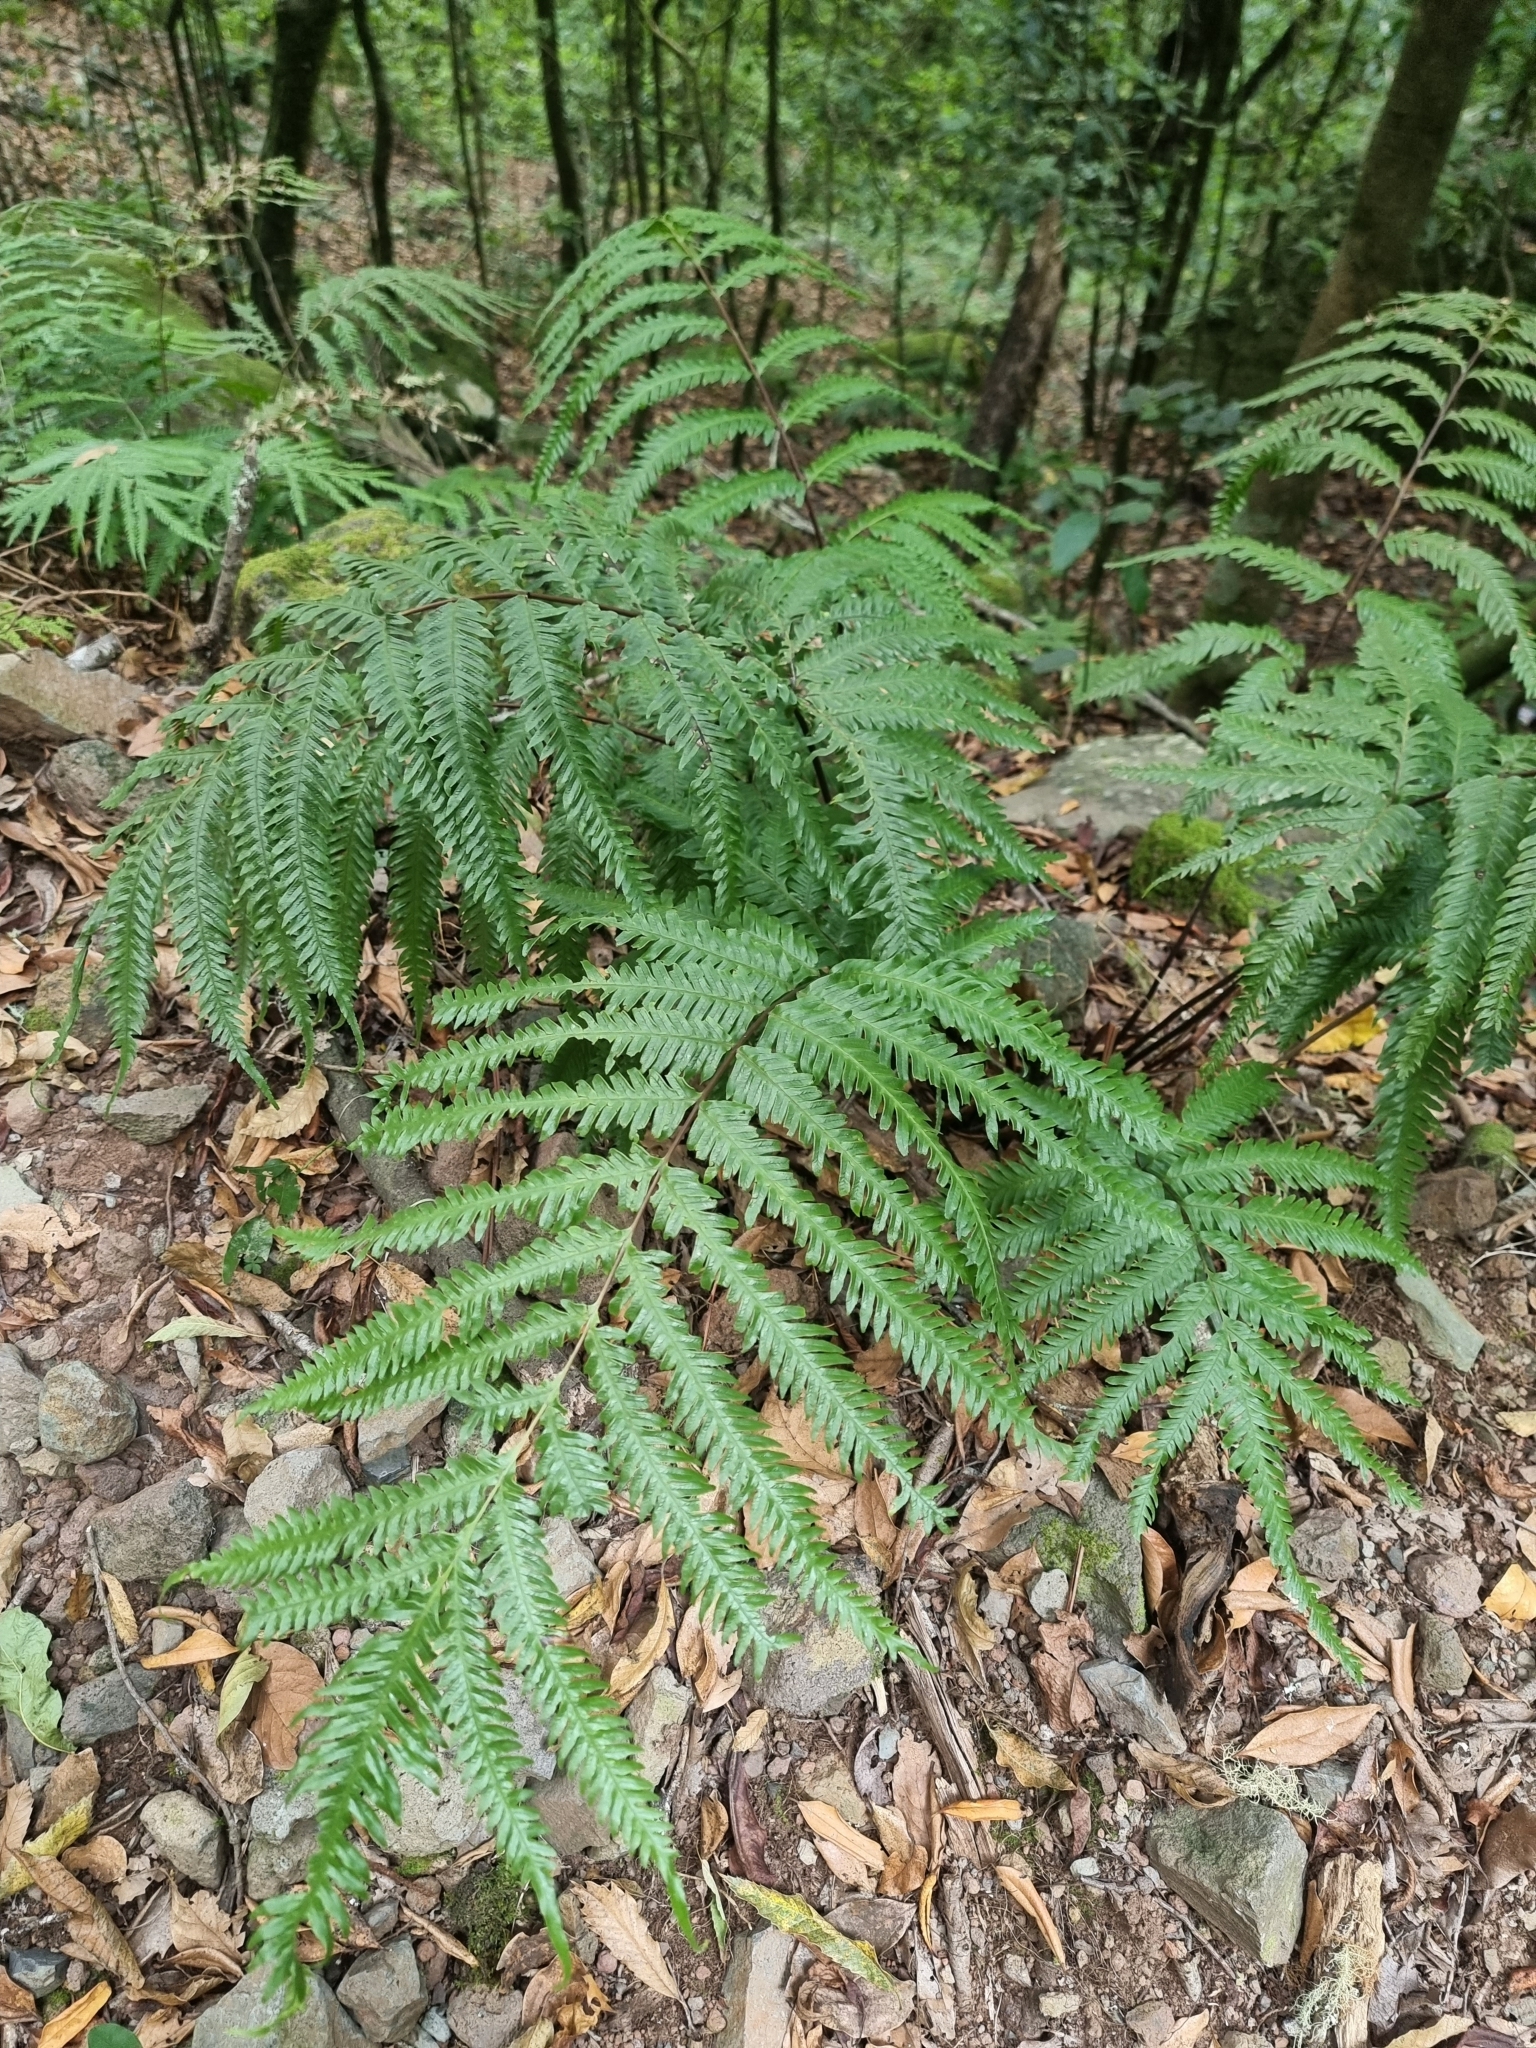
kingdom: Plantae
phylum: Tracheophyta
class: Polypodiopsida
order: Polypodiales
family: Pteridaceae
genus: Pteris
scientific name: Pteris incompleta
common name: Laurisilva brake
